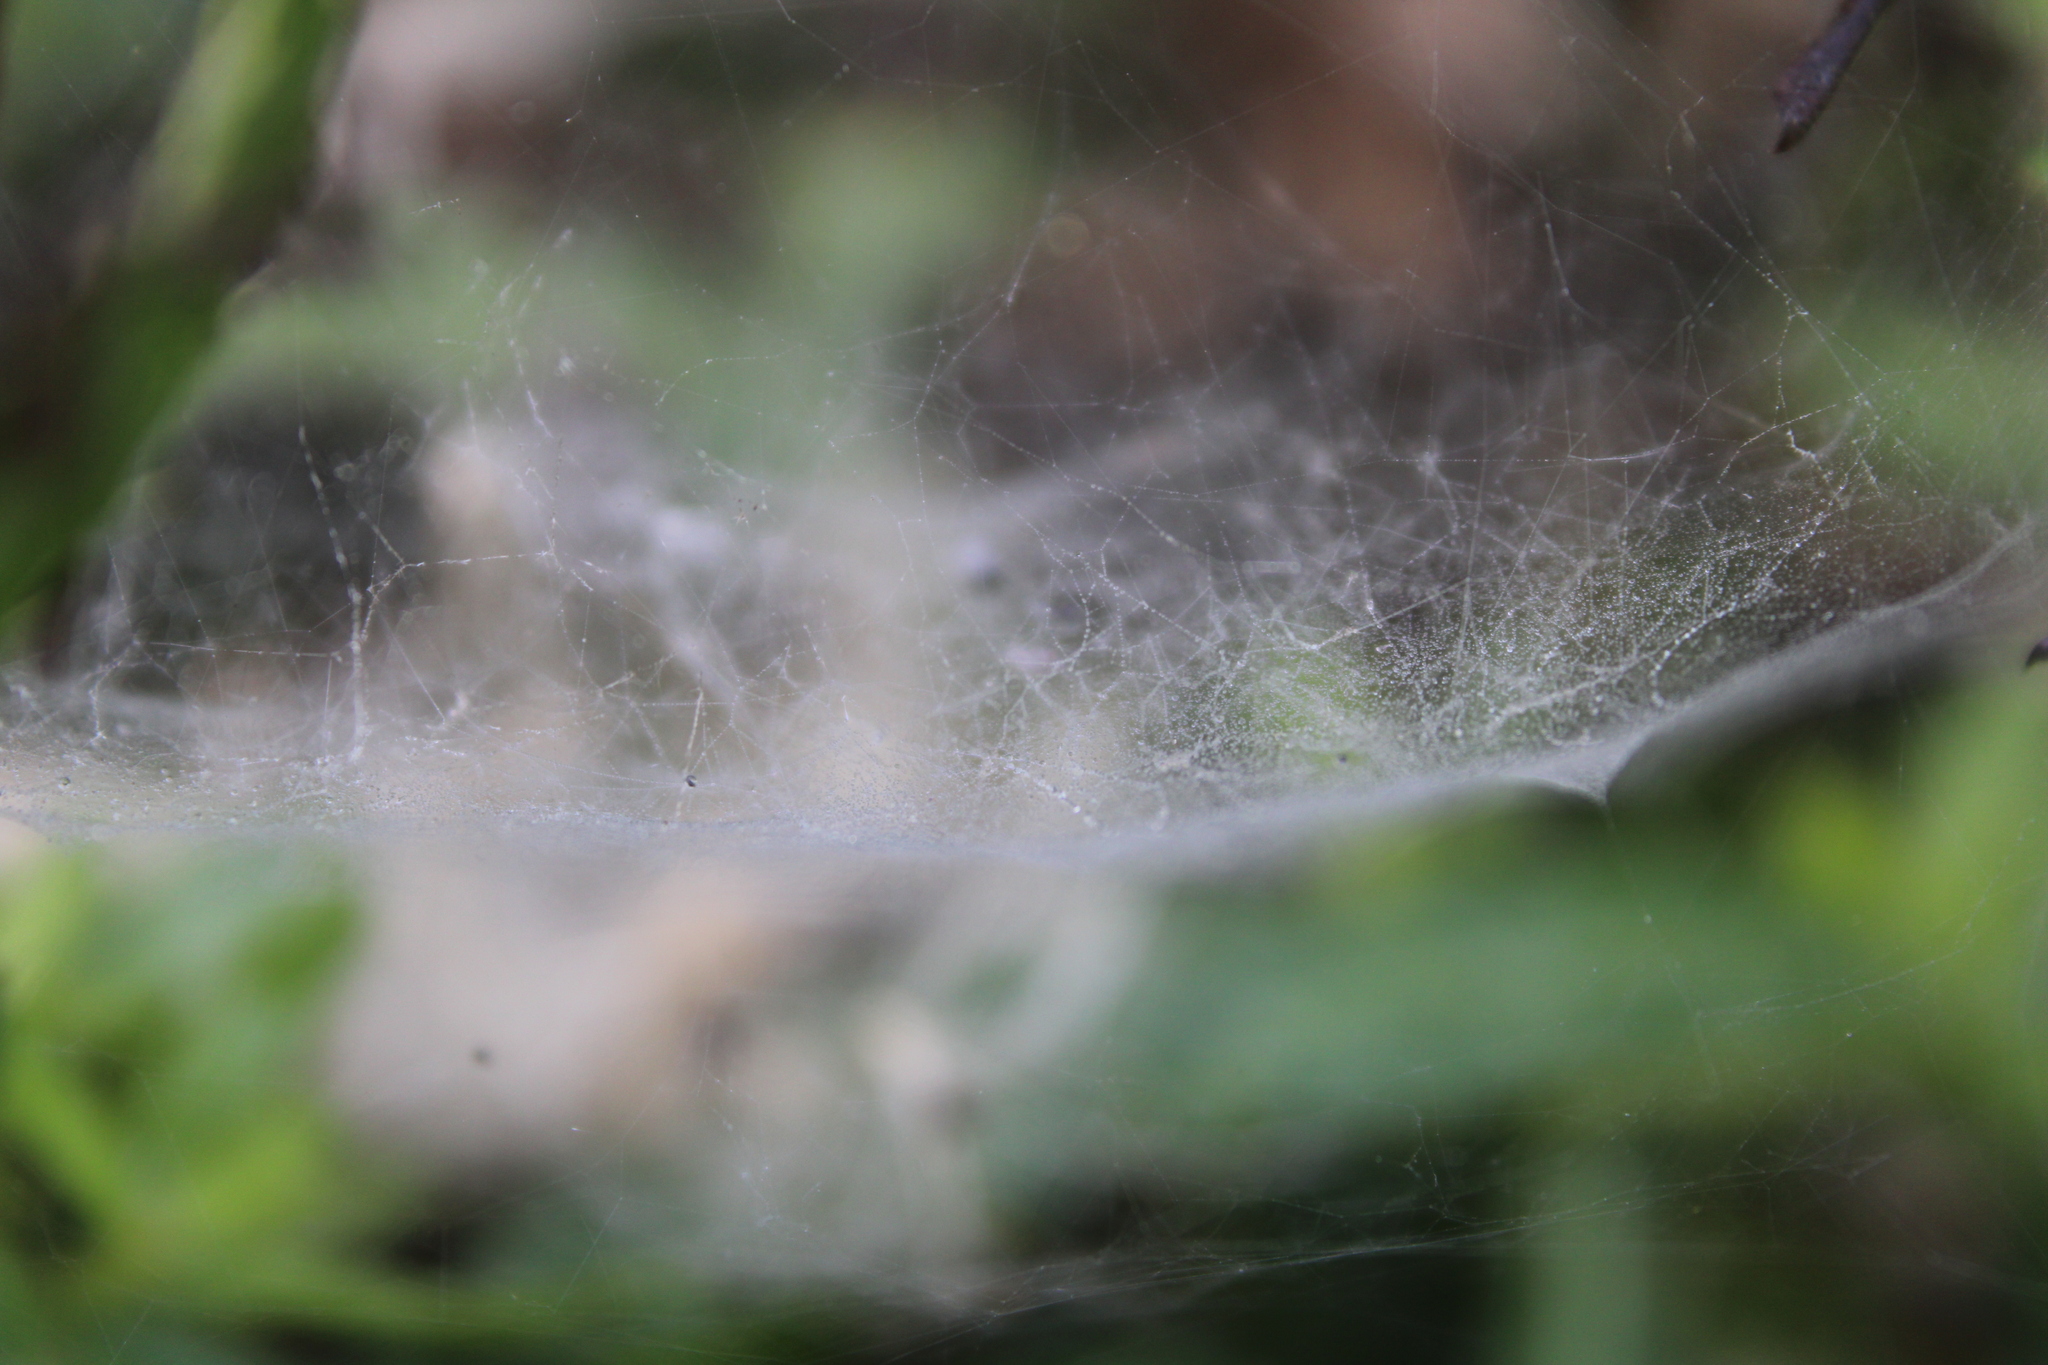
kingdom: Animalia
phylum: Arthropoda
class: Arachnida
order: Araneae
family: Linyphiidae
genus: Frontinella
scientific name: Frontinella pyramitela
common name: Bowl-and-doily spider
